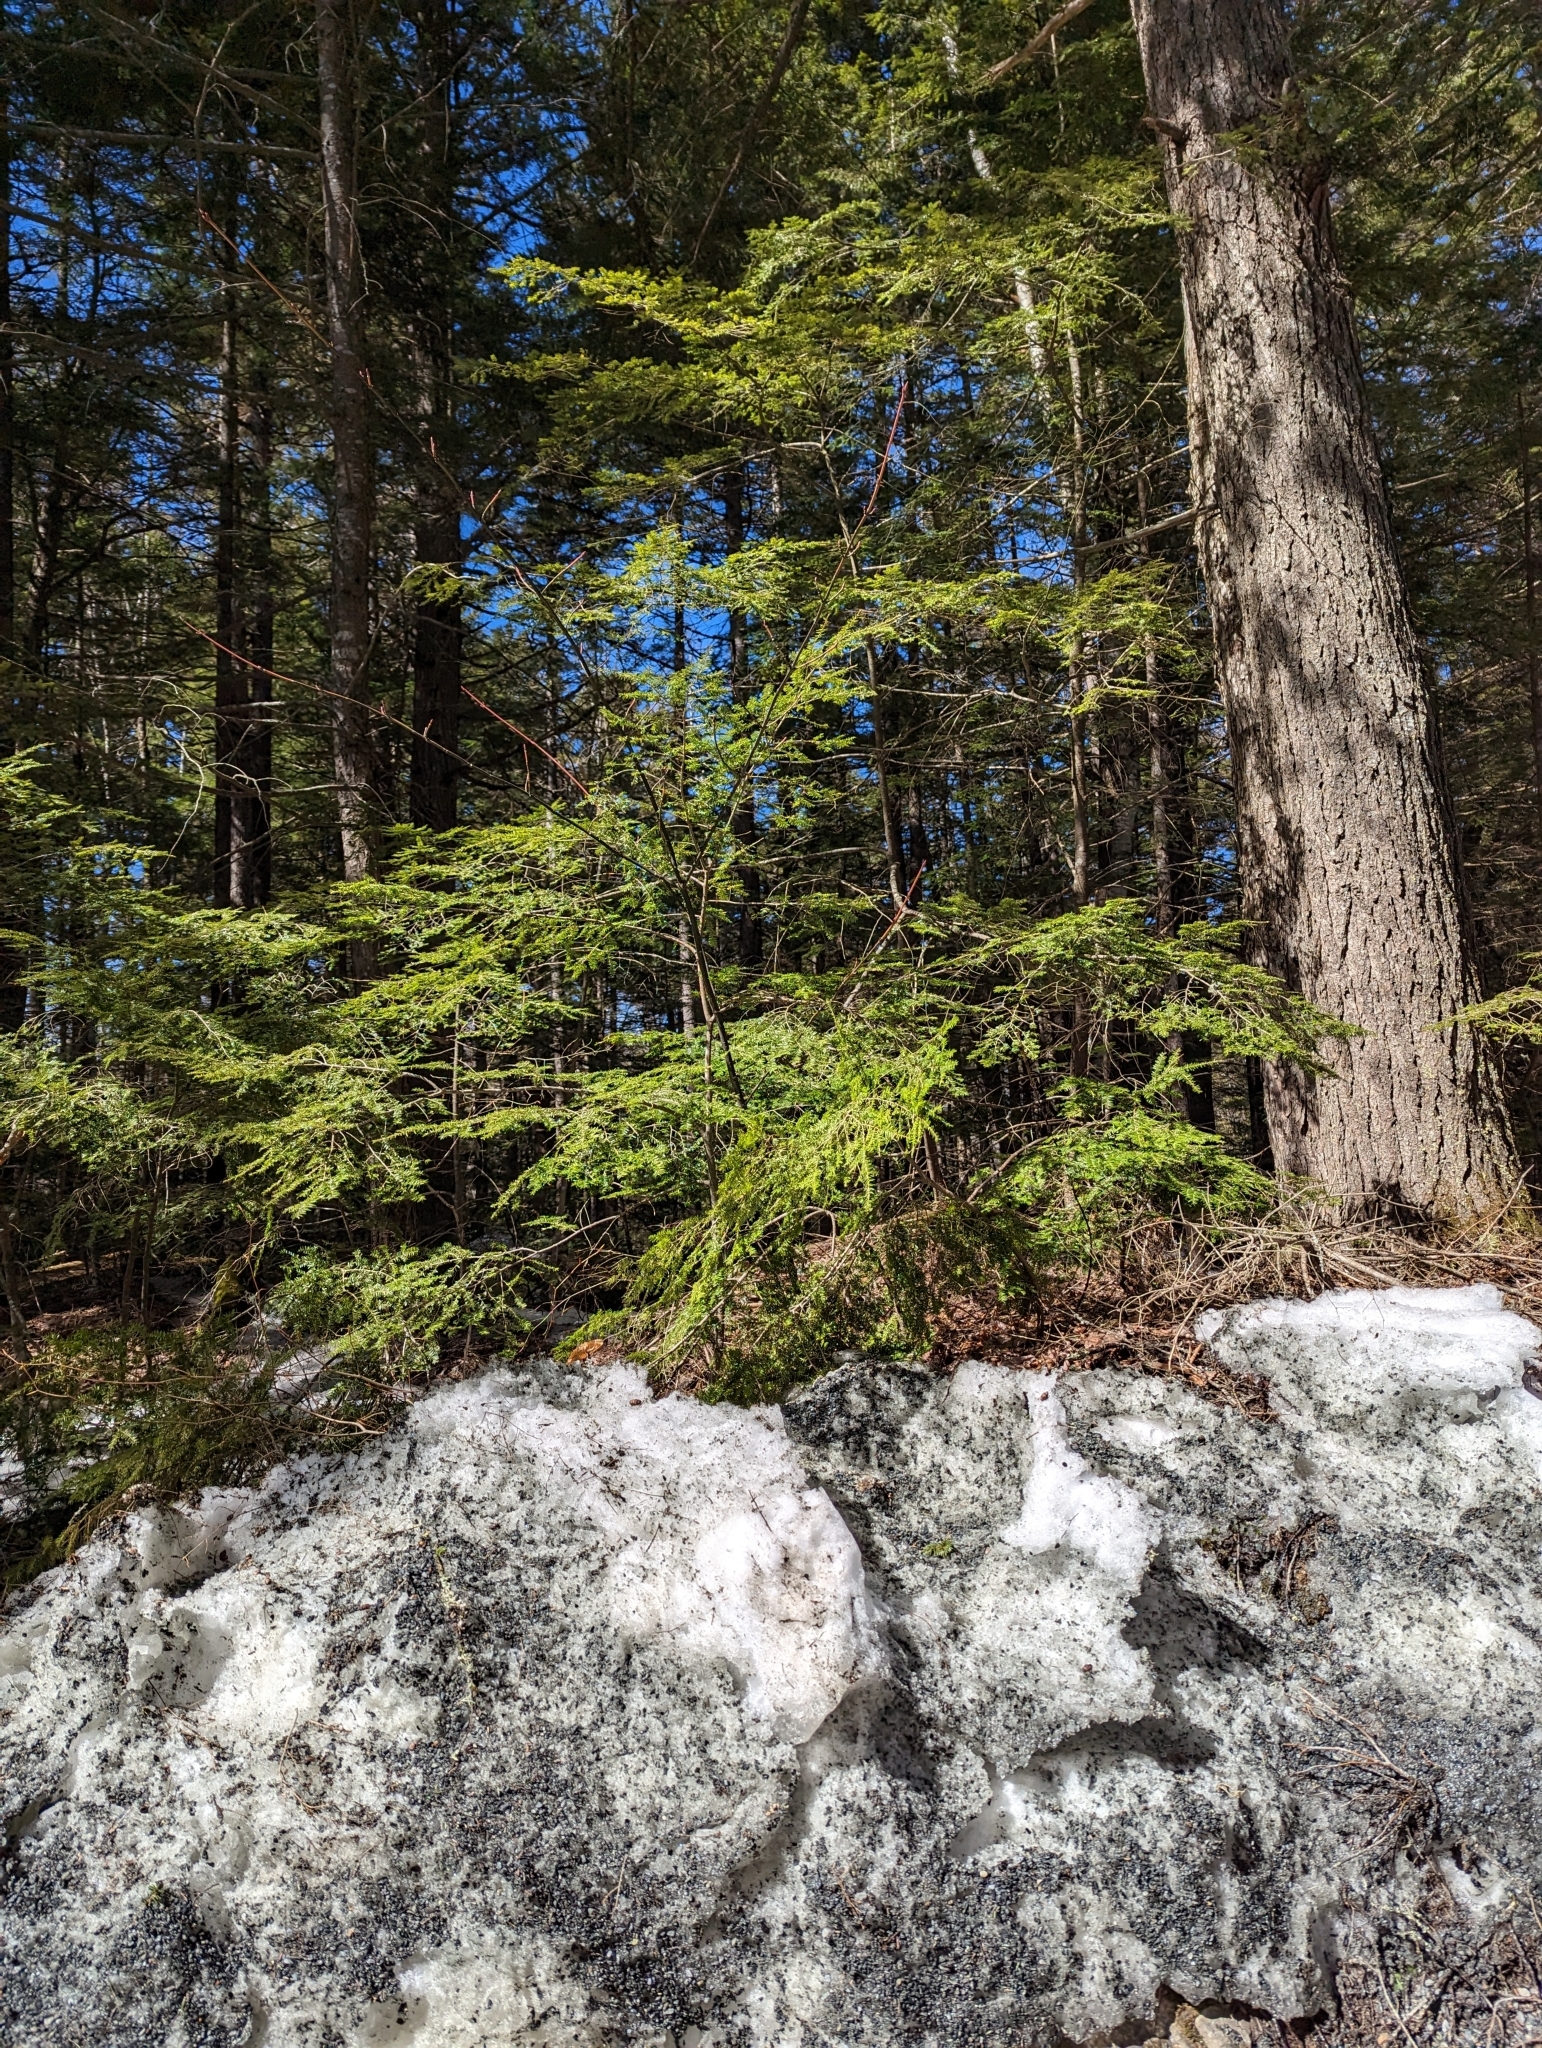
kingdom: Plantae
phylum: Tracheophyta
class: Pinopsida
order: Pinales
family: Pinaceae
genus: Tsuga
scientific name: Tsuga canadensis
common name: Eastern hemlock
